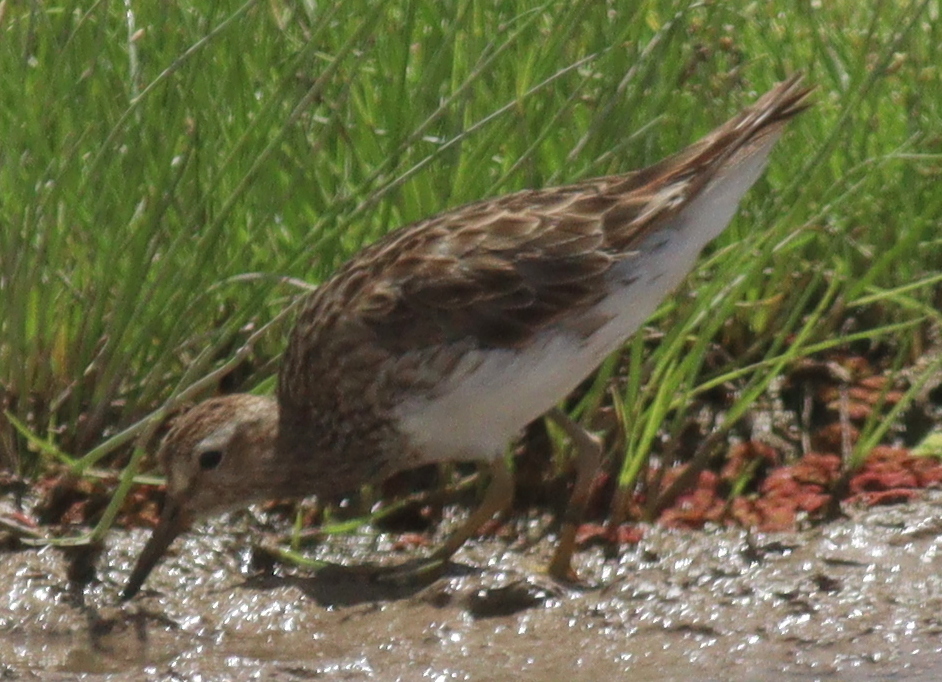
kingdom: Animalia
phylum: Chordata
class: Aves
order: Charadriiformes
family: Scolopacidae
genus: Calidris
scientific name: Calidris melanotos
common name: Pectoral sandpiper
